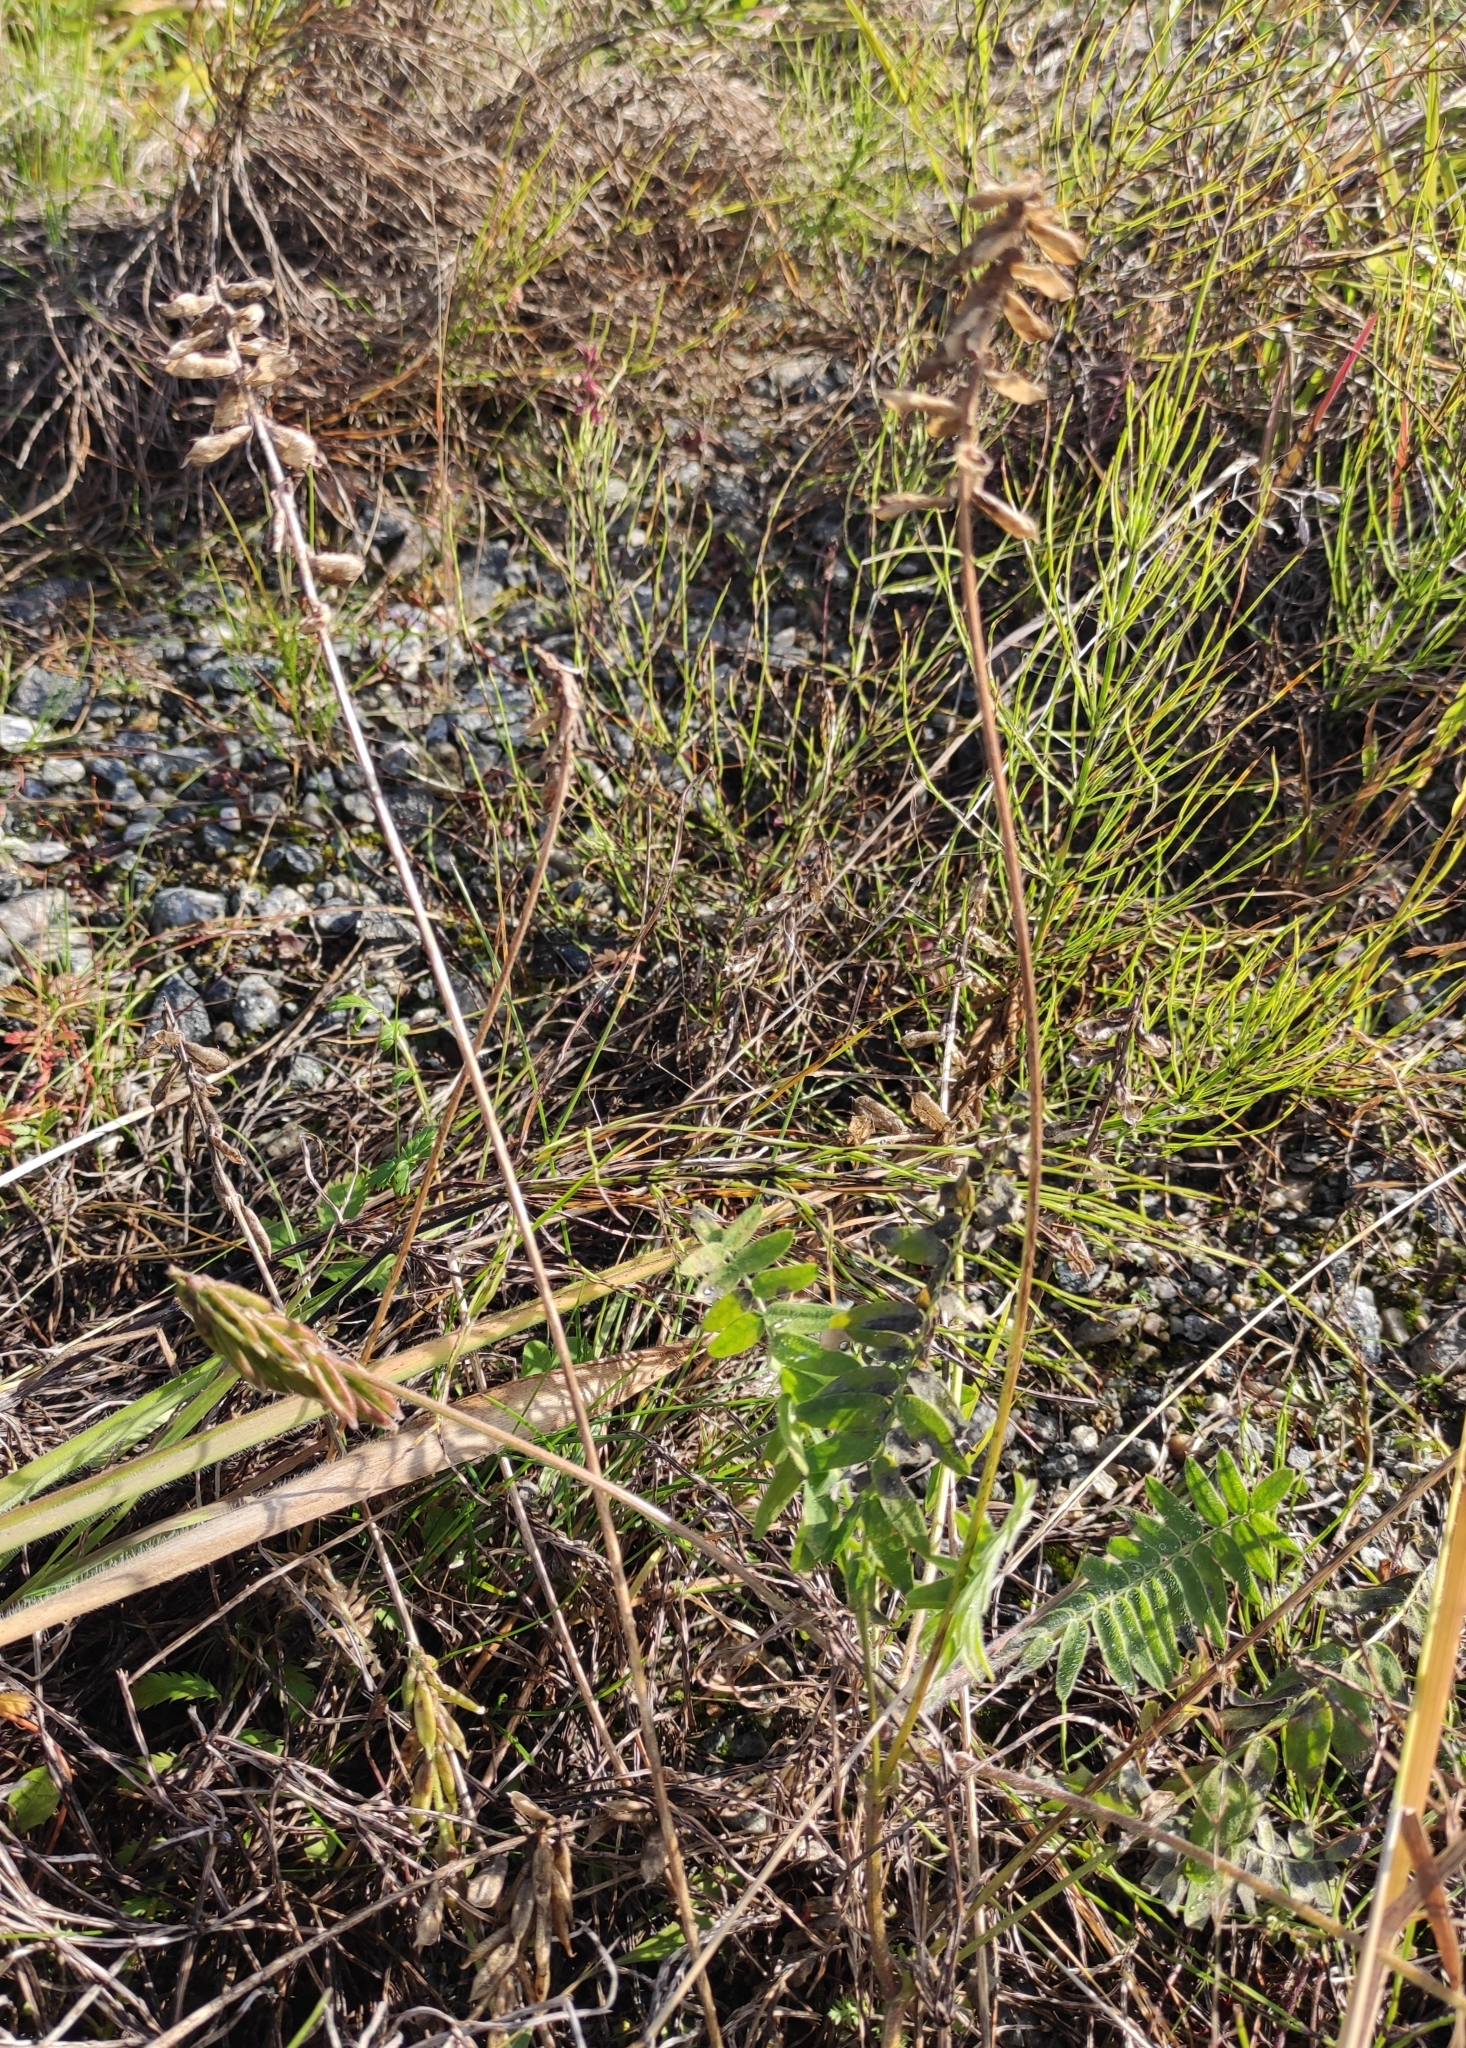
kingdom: Plantae
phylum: Tracheophyta
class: Magnoliopsida
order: Fabales
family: Fabaceae
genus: Oxytropis
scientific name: Oxytropis deflexa
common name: Stemmed oxytrope
